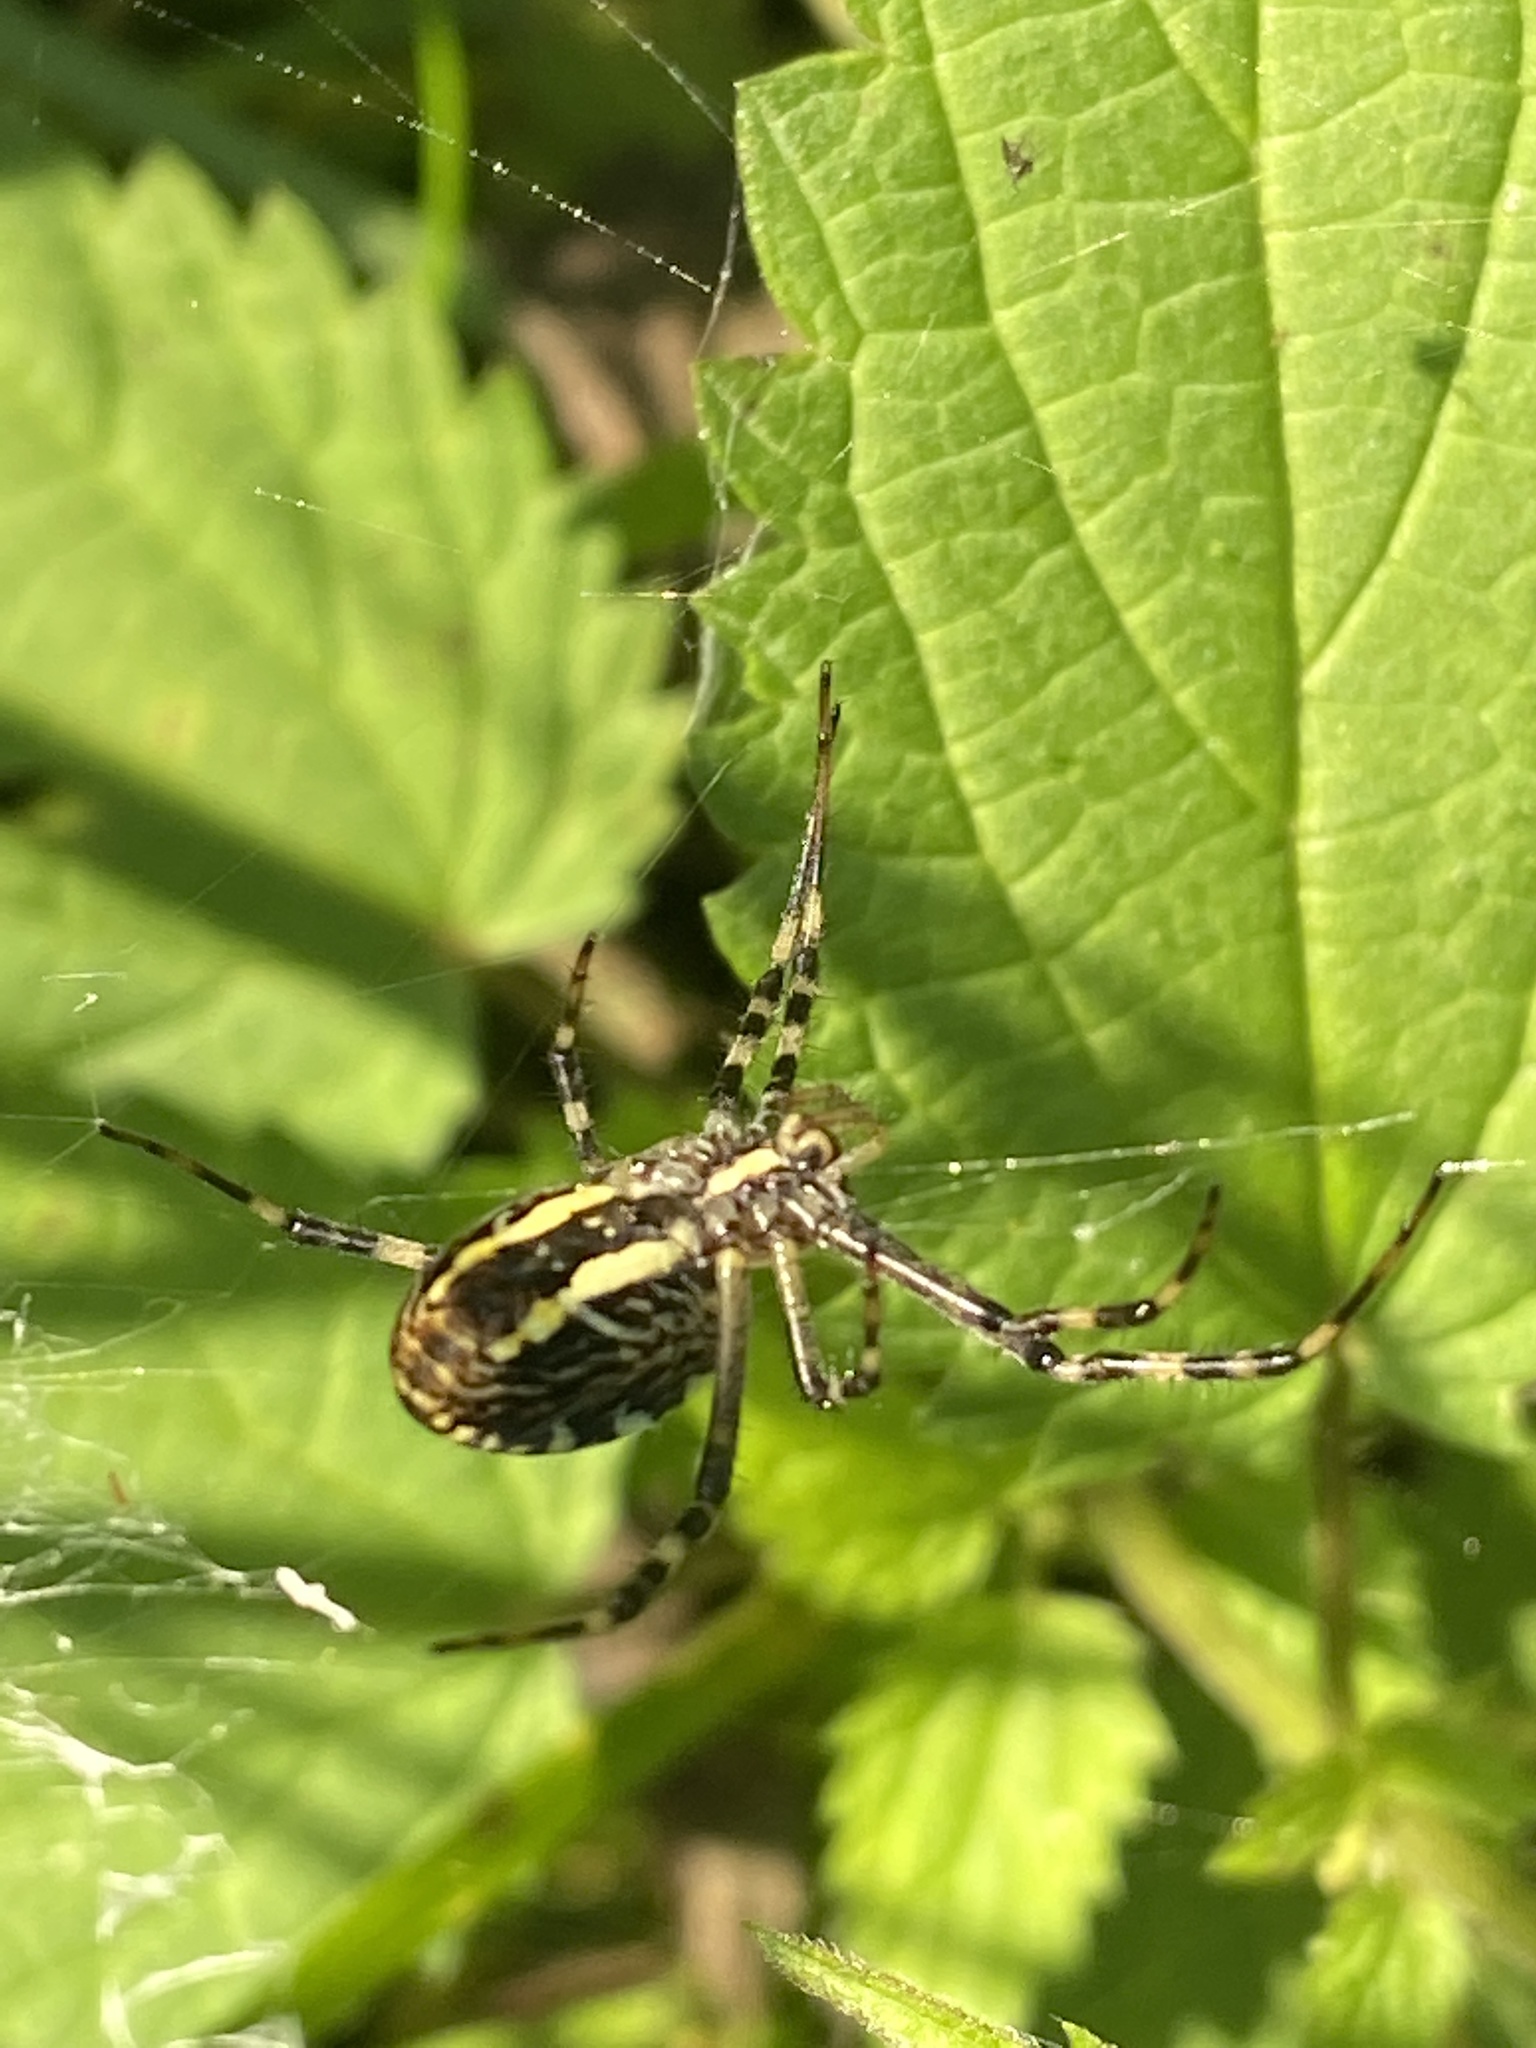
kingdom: Animalia
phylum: Arthropoda
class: Arachnida
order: Araneae
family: Araneidae
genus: Argiope
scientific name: Argiope bruennichi
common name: Wasp spider
